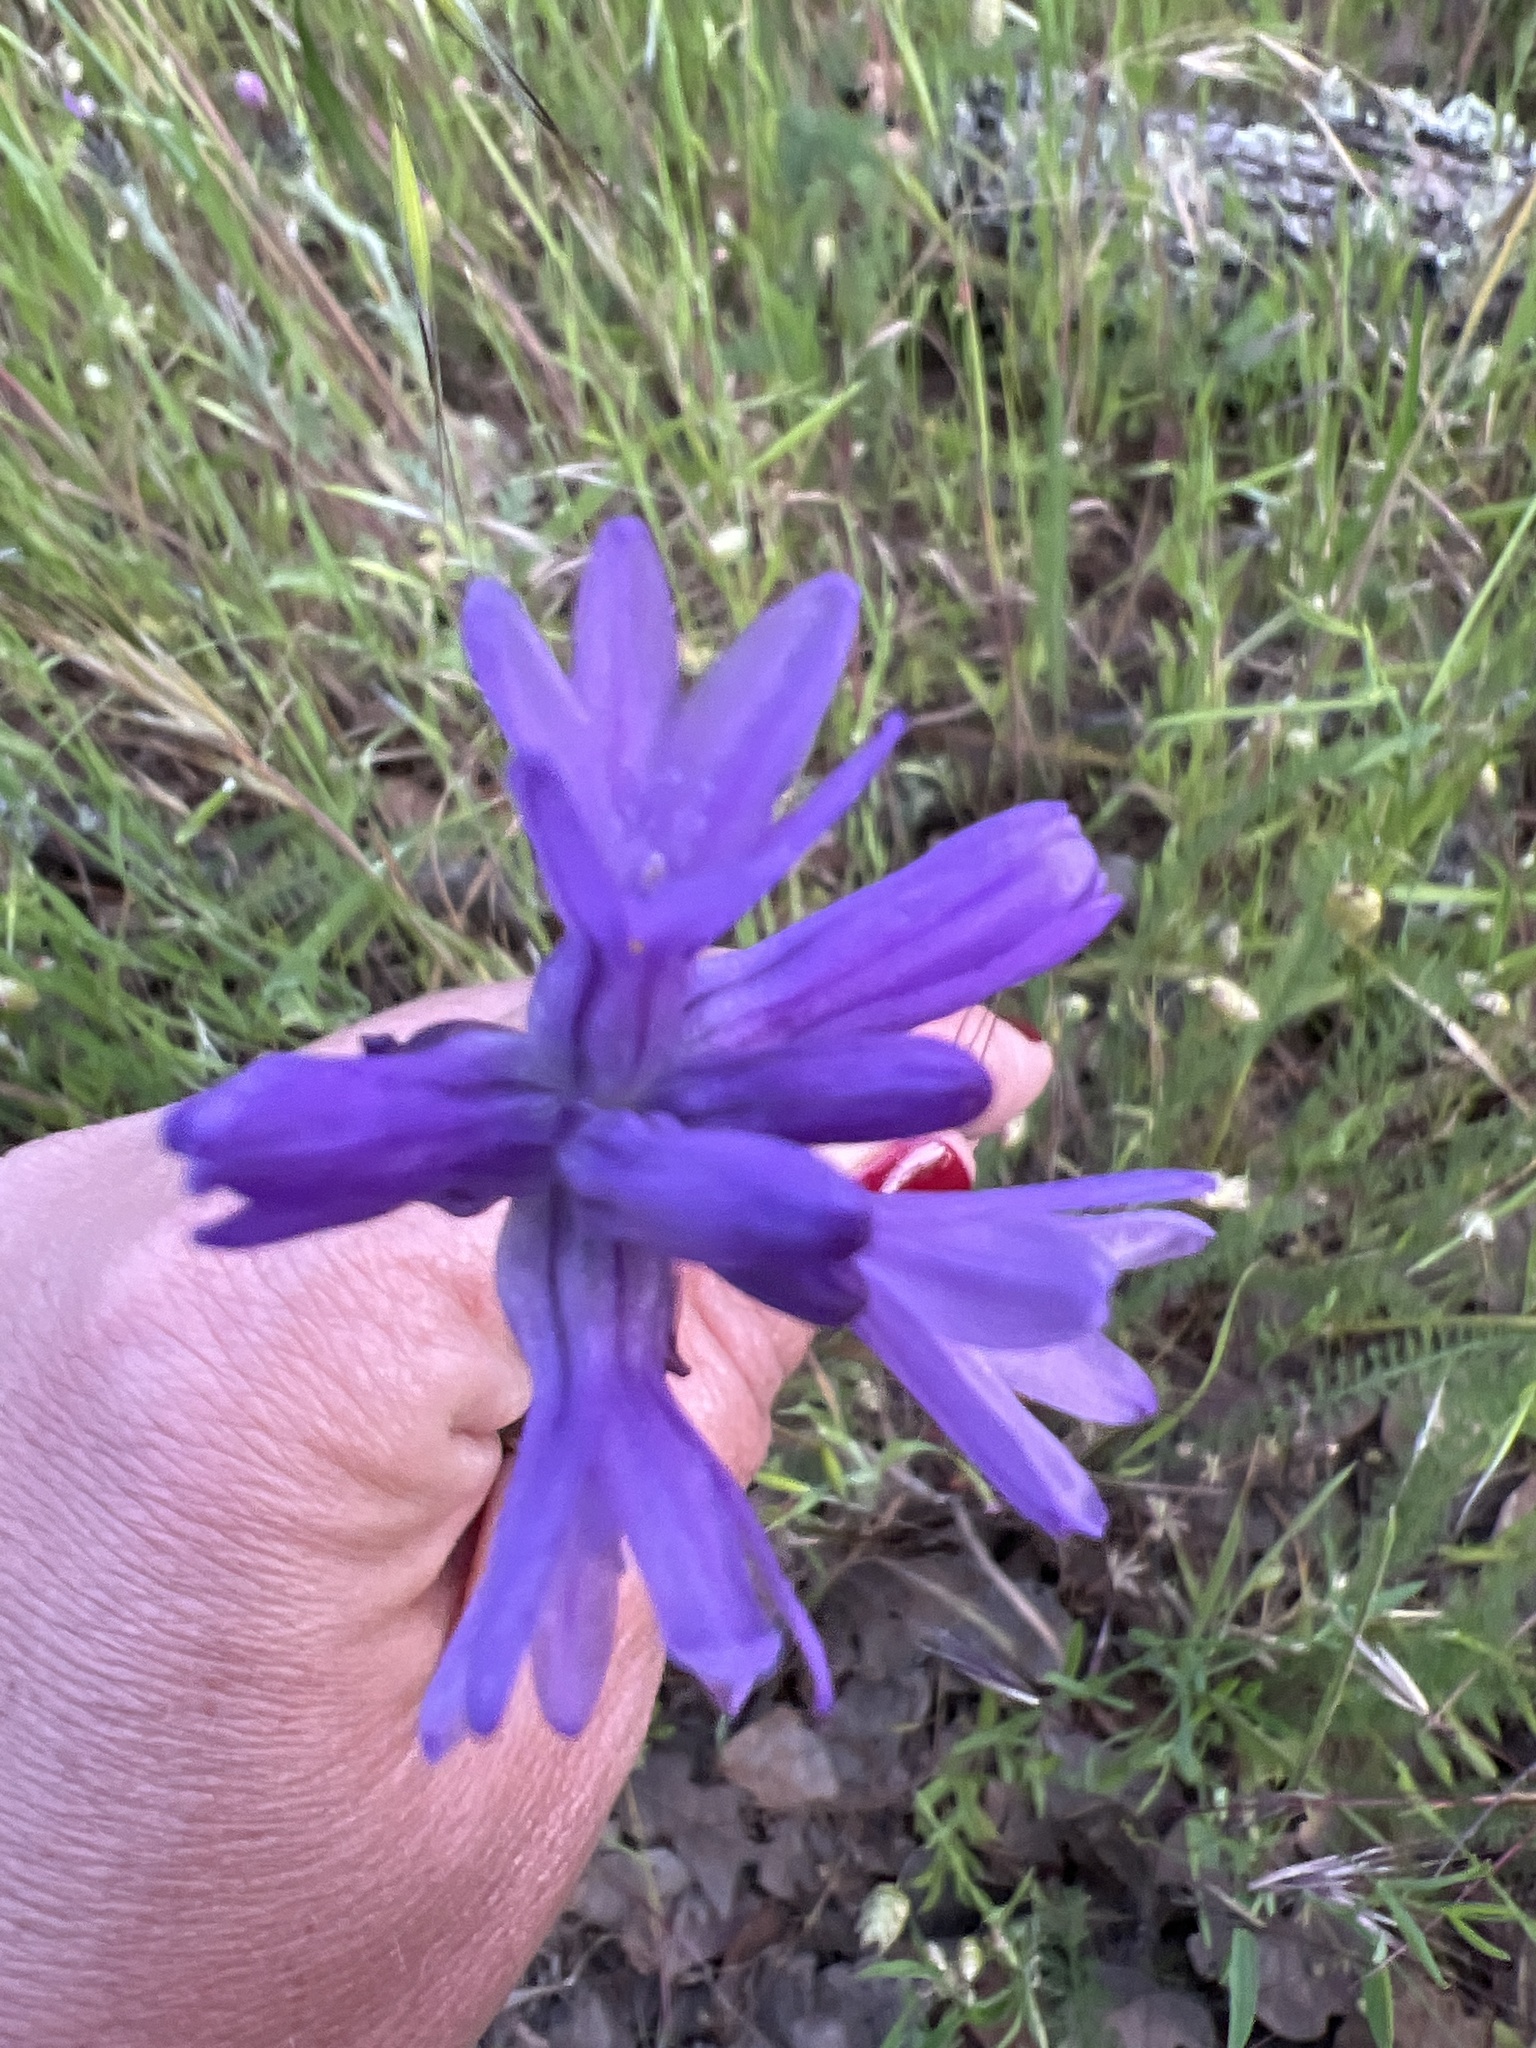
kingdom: Plantae
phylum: Tracheophyta
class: Liliopsida
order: Asparagales
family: Asparagaceae
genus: Dichelostemma
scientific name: Dichelostemma congestum
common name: Fork-tooth ookow
